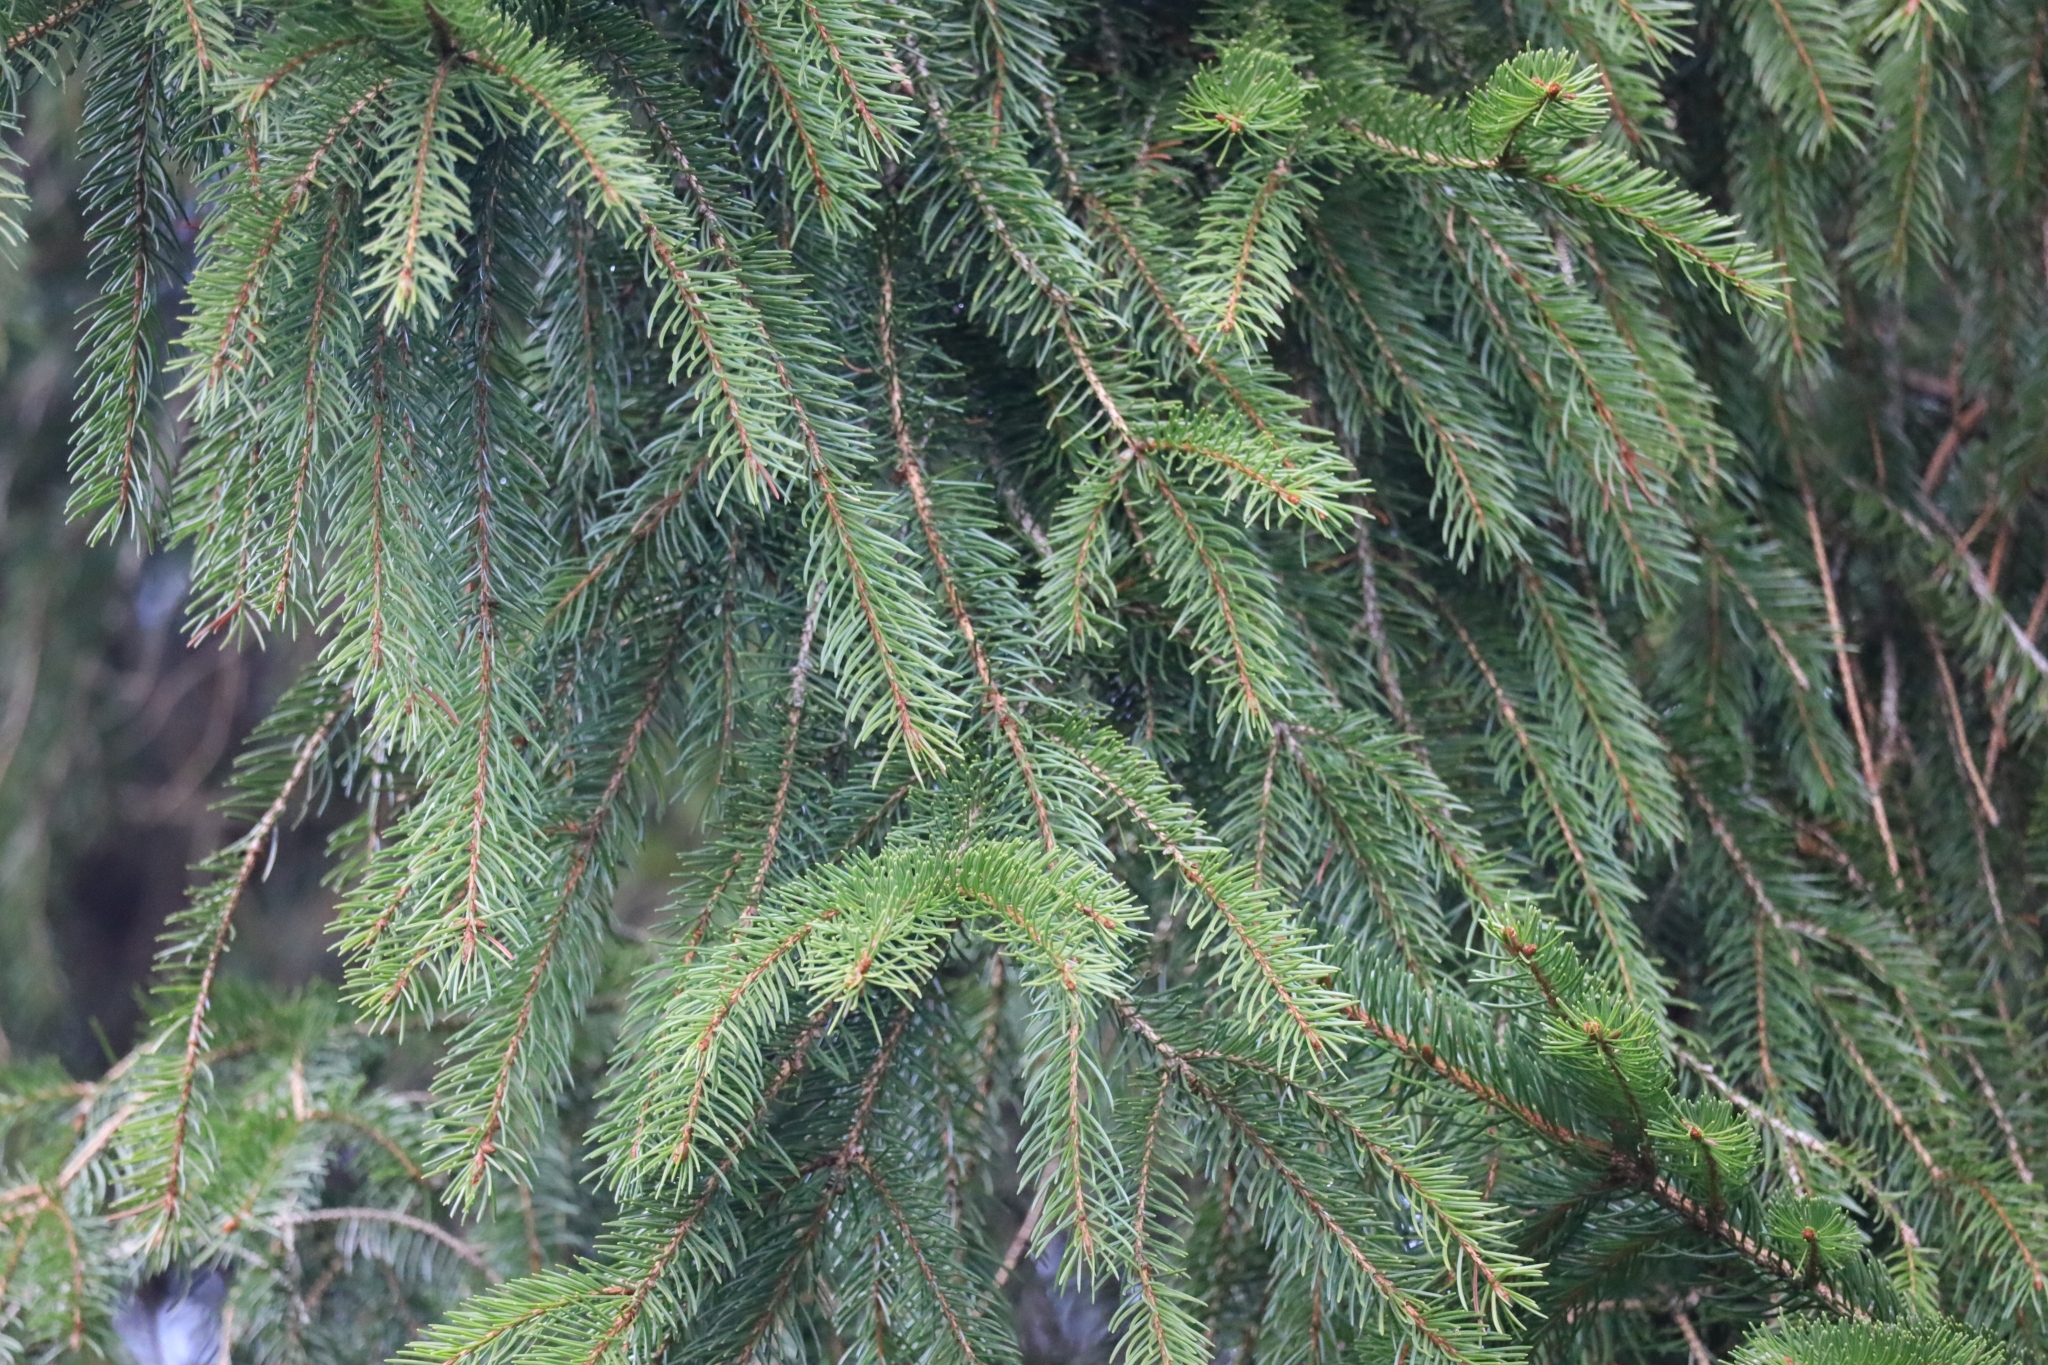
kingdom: Plantae
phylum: Tracheophyta
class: Pinopsida
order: Pinales
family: Pinaceae
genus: Picea
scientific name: Picea abies
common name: Norway spruce
